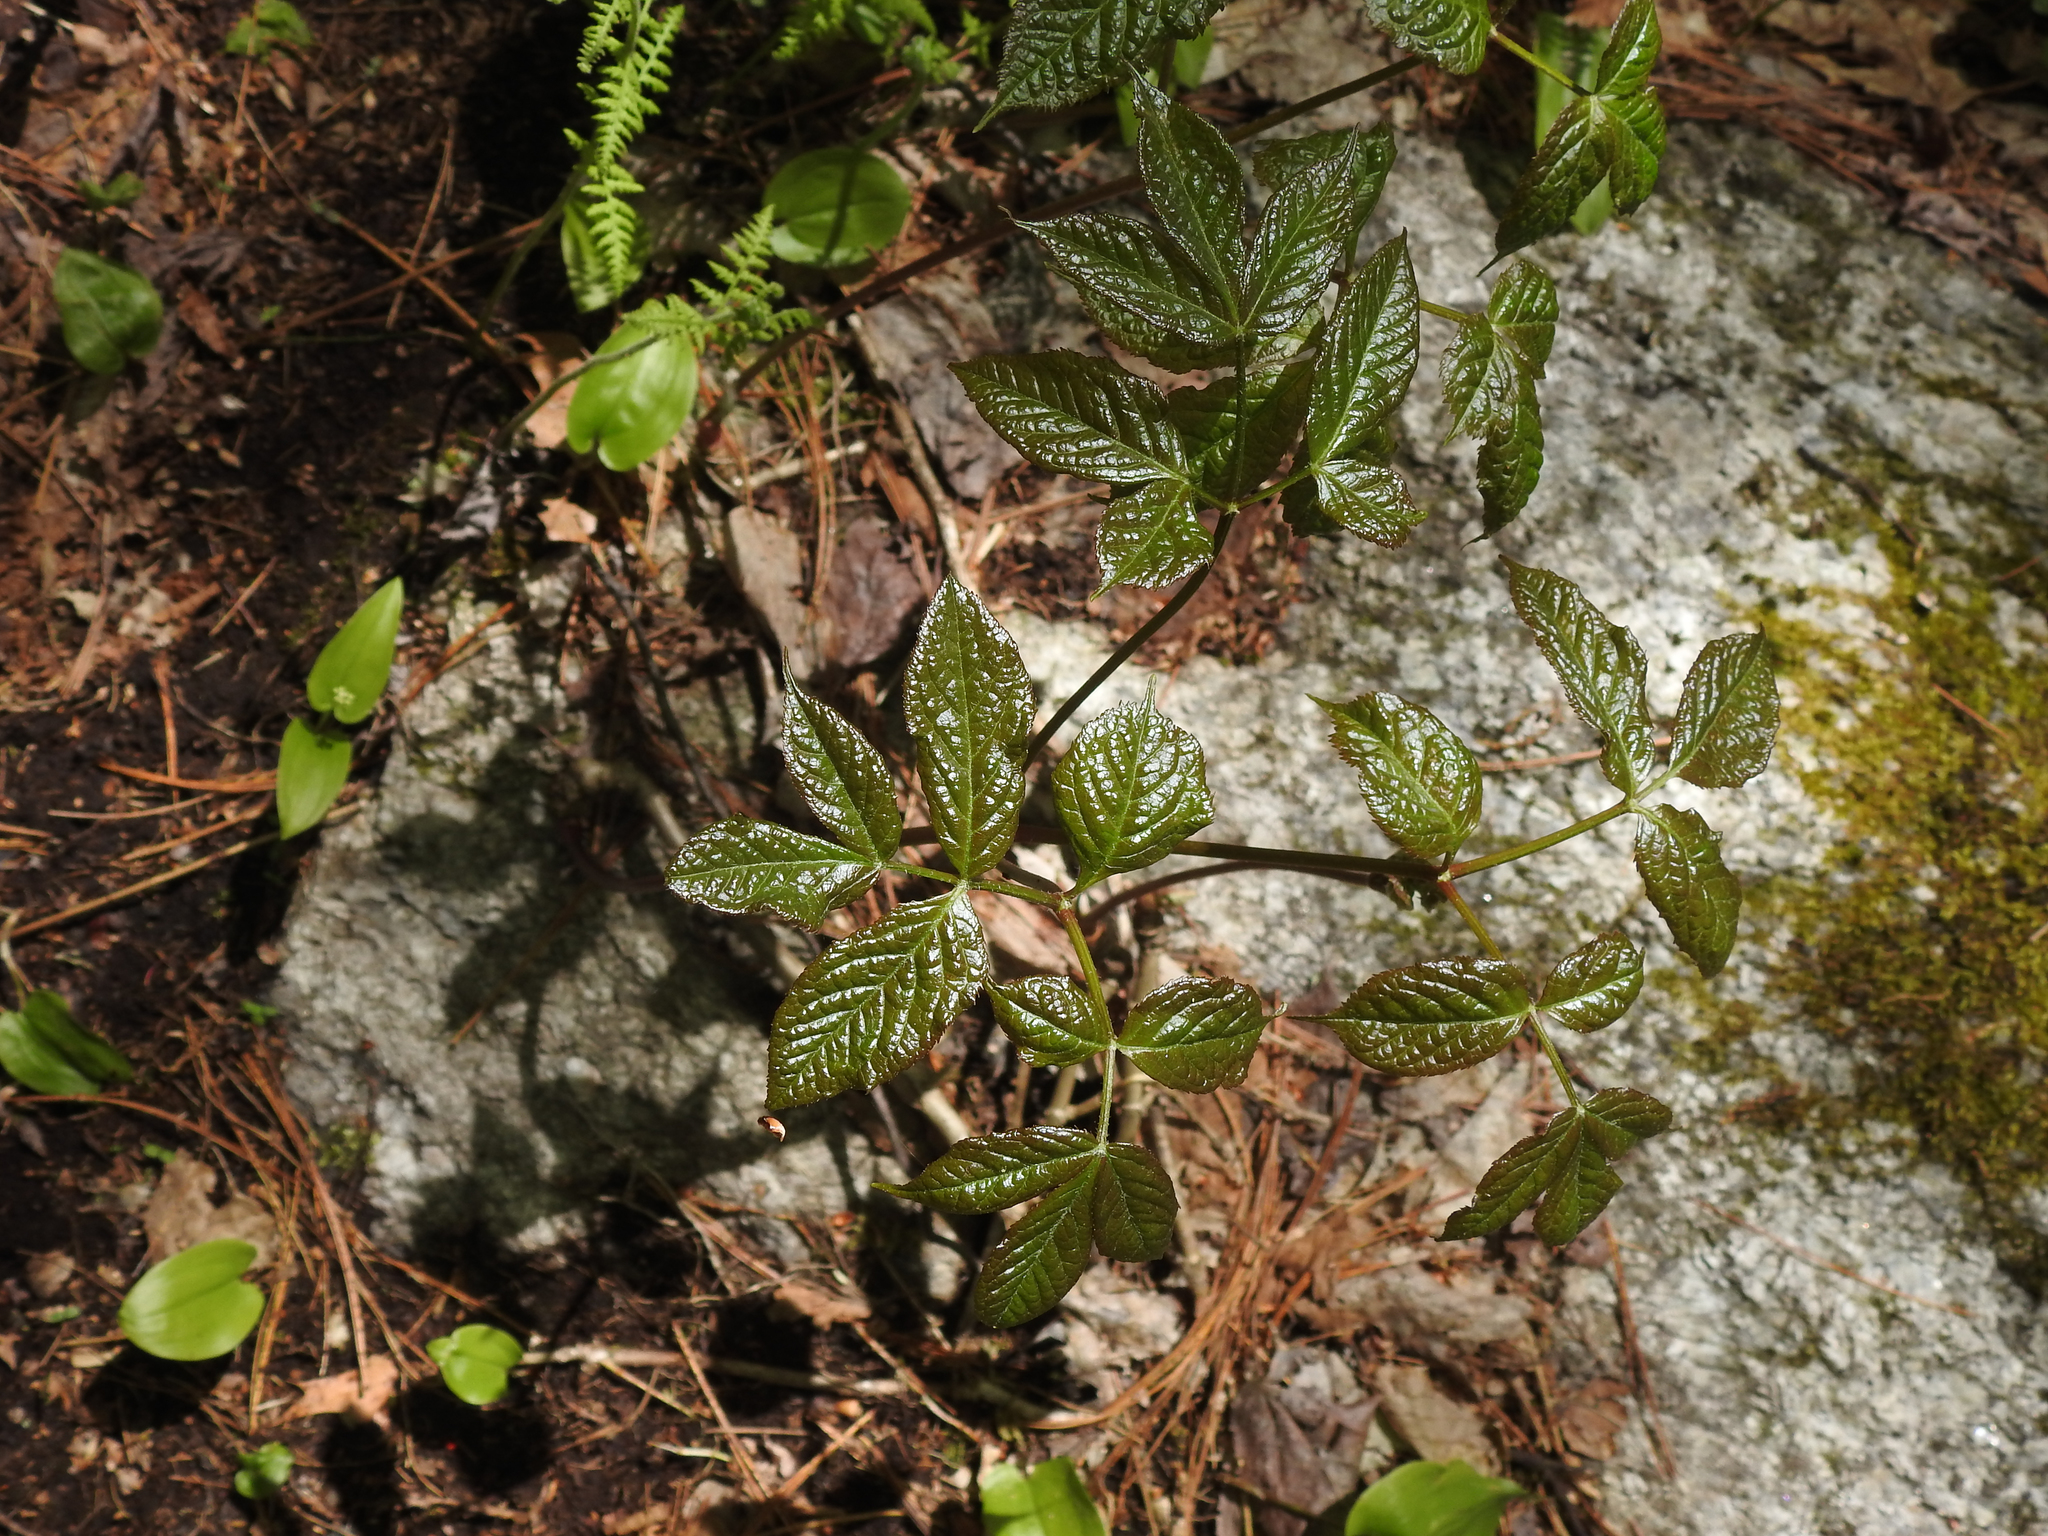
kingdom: Plantae
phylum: Tracheophyta
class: Magnoliopsida
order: Apiales
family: Araliaceae
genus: Aralia
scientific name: Aralia nudicaulis
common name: Wild sarsaparilla
